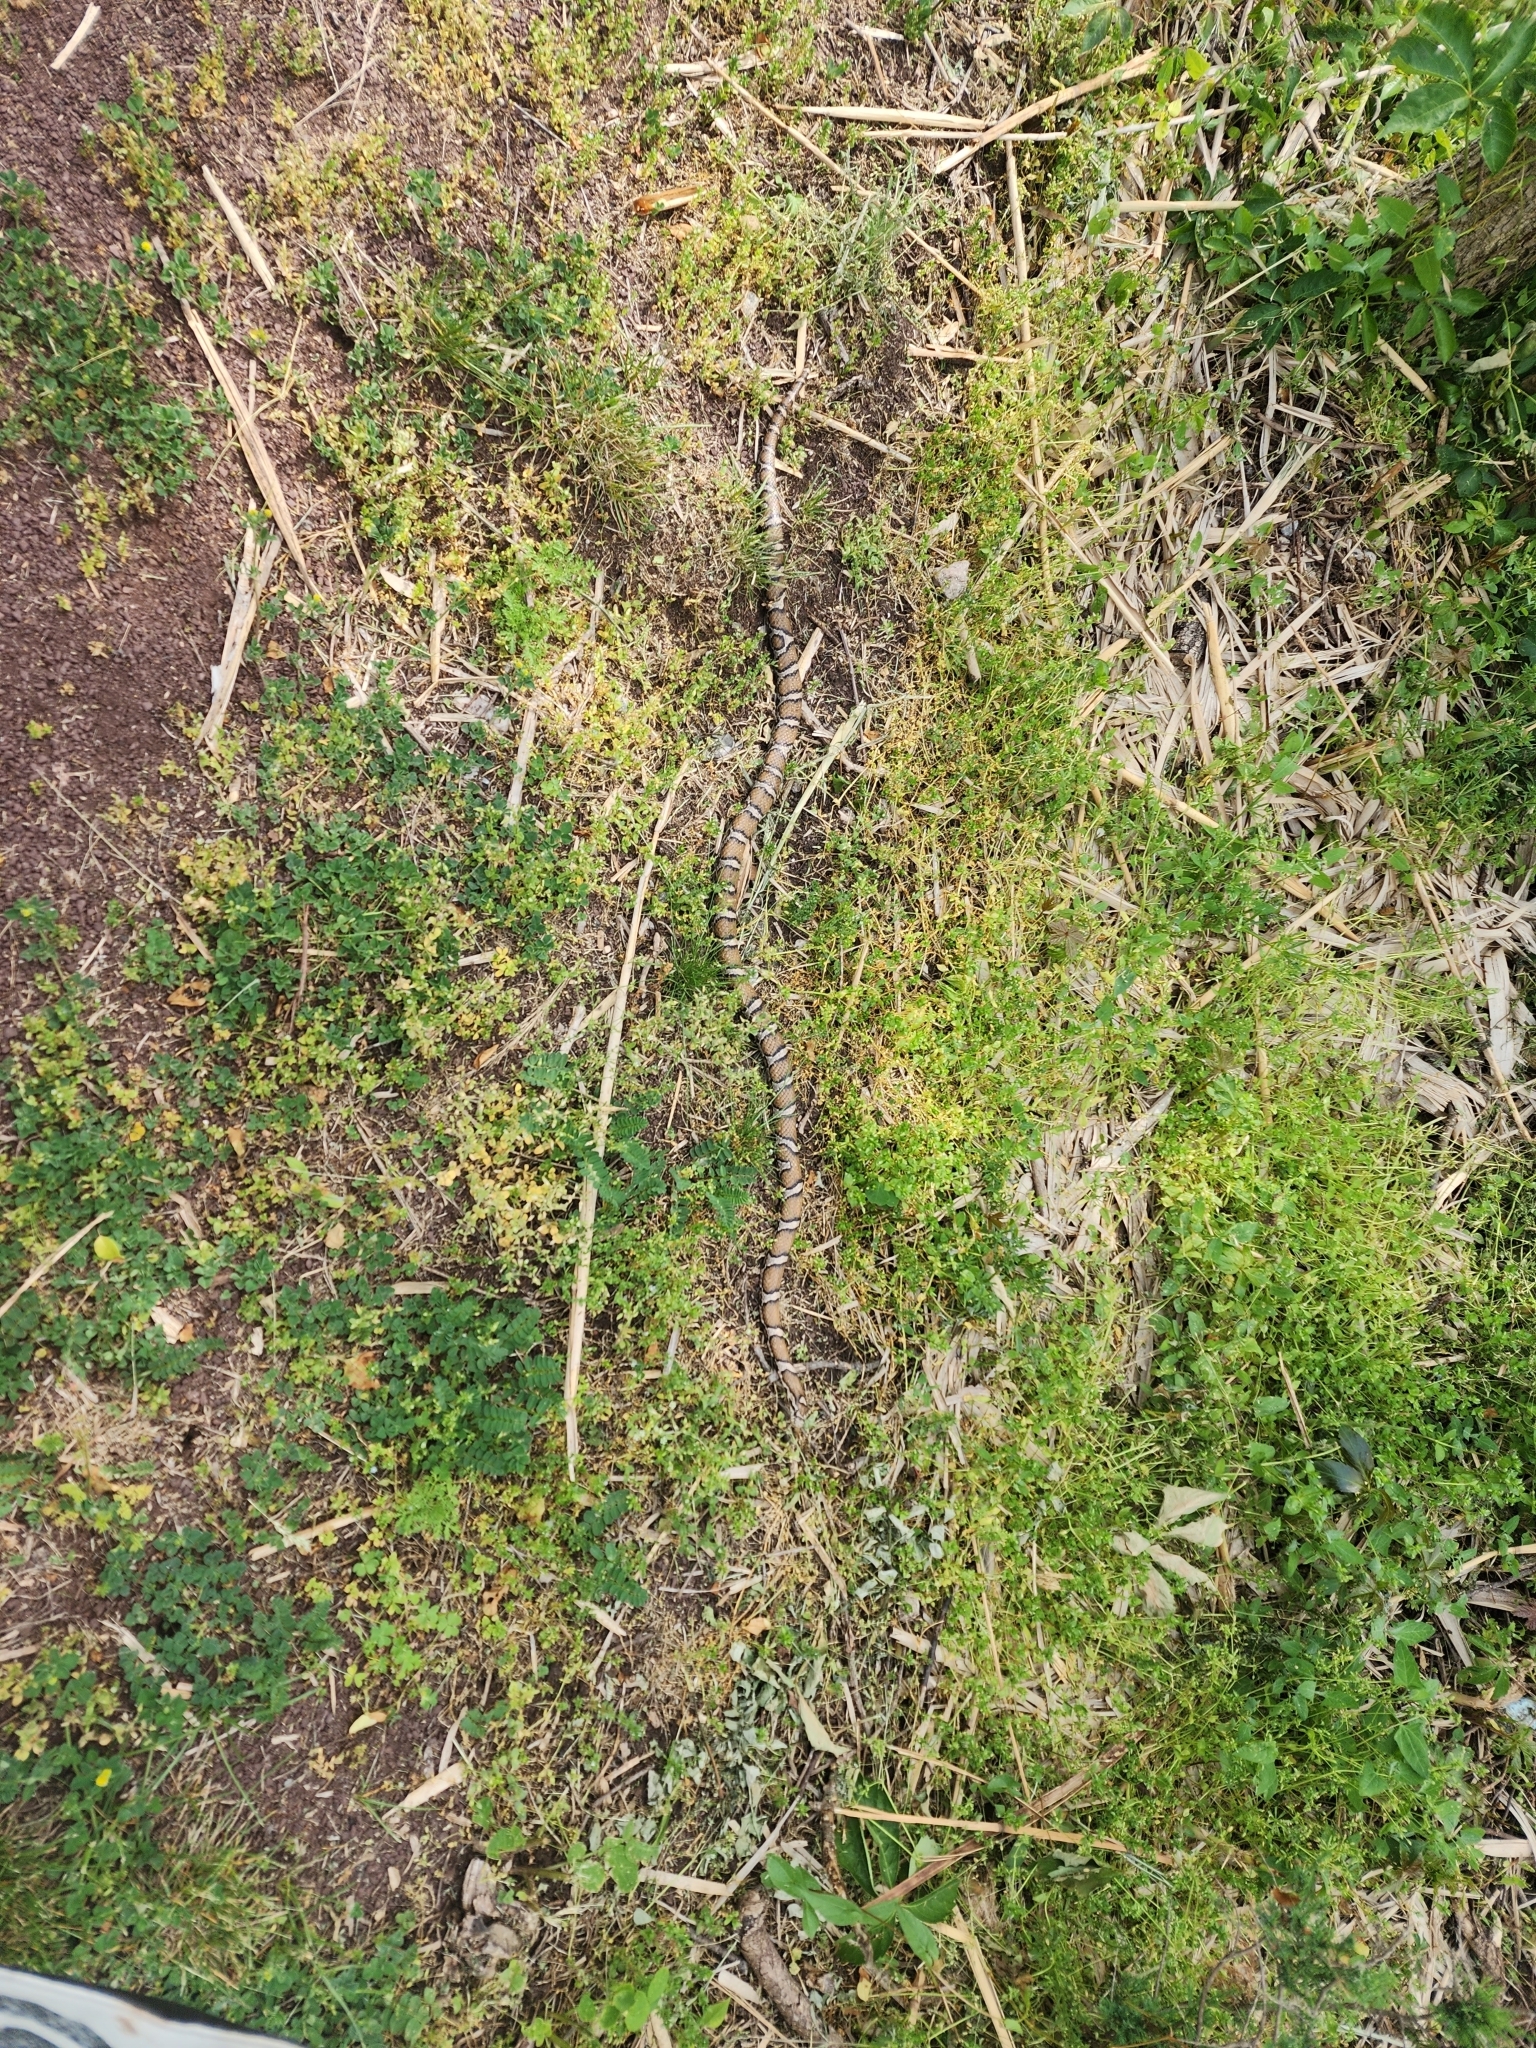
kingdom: Animalia
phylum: Chordata
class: Squamata
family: Colubridae
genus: Lampropeltis
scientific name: Lampropeltis triangulum
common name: Eastern milksnake
